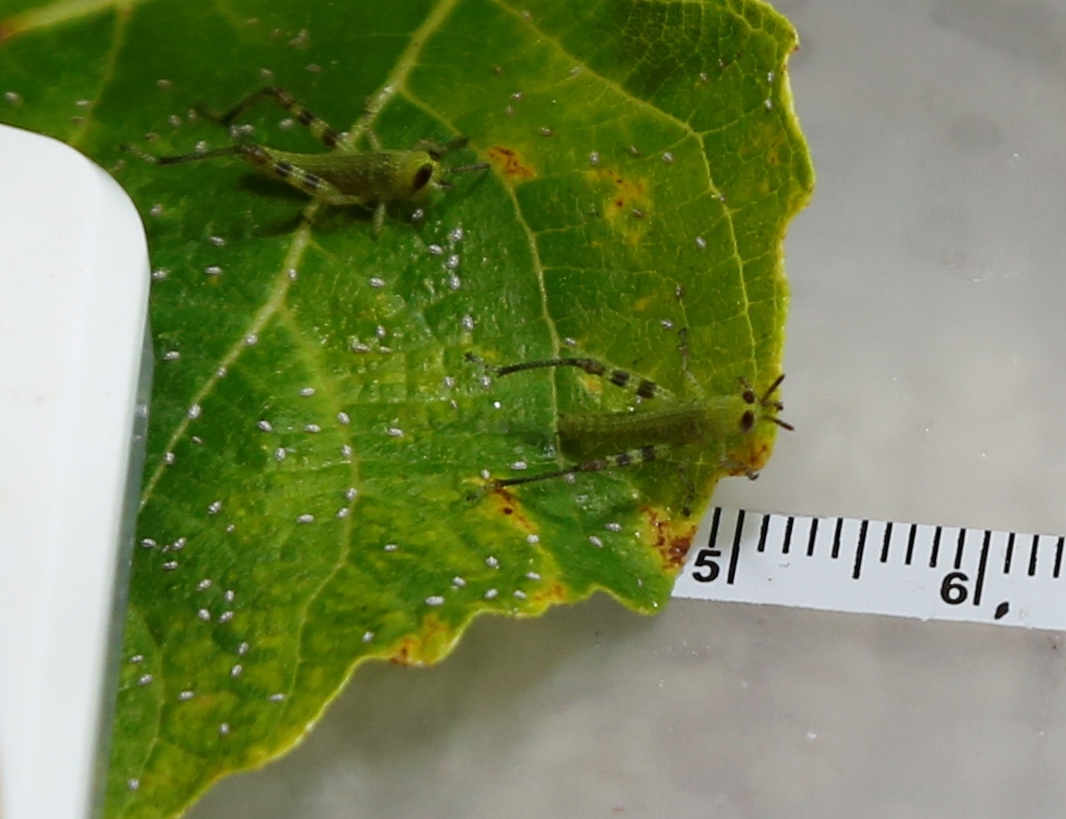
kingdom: Animalia
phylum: Arthropoda
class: Insecta
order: Orthoptera
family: Acrididae
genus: Valanga
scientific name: Valanga irregularis
